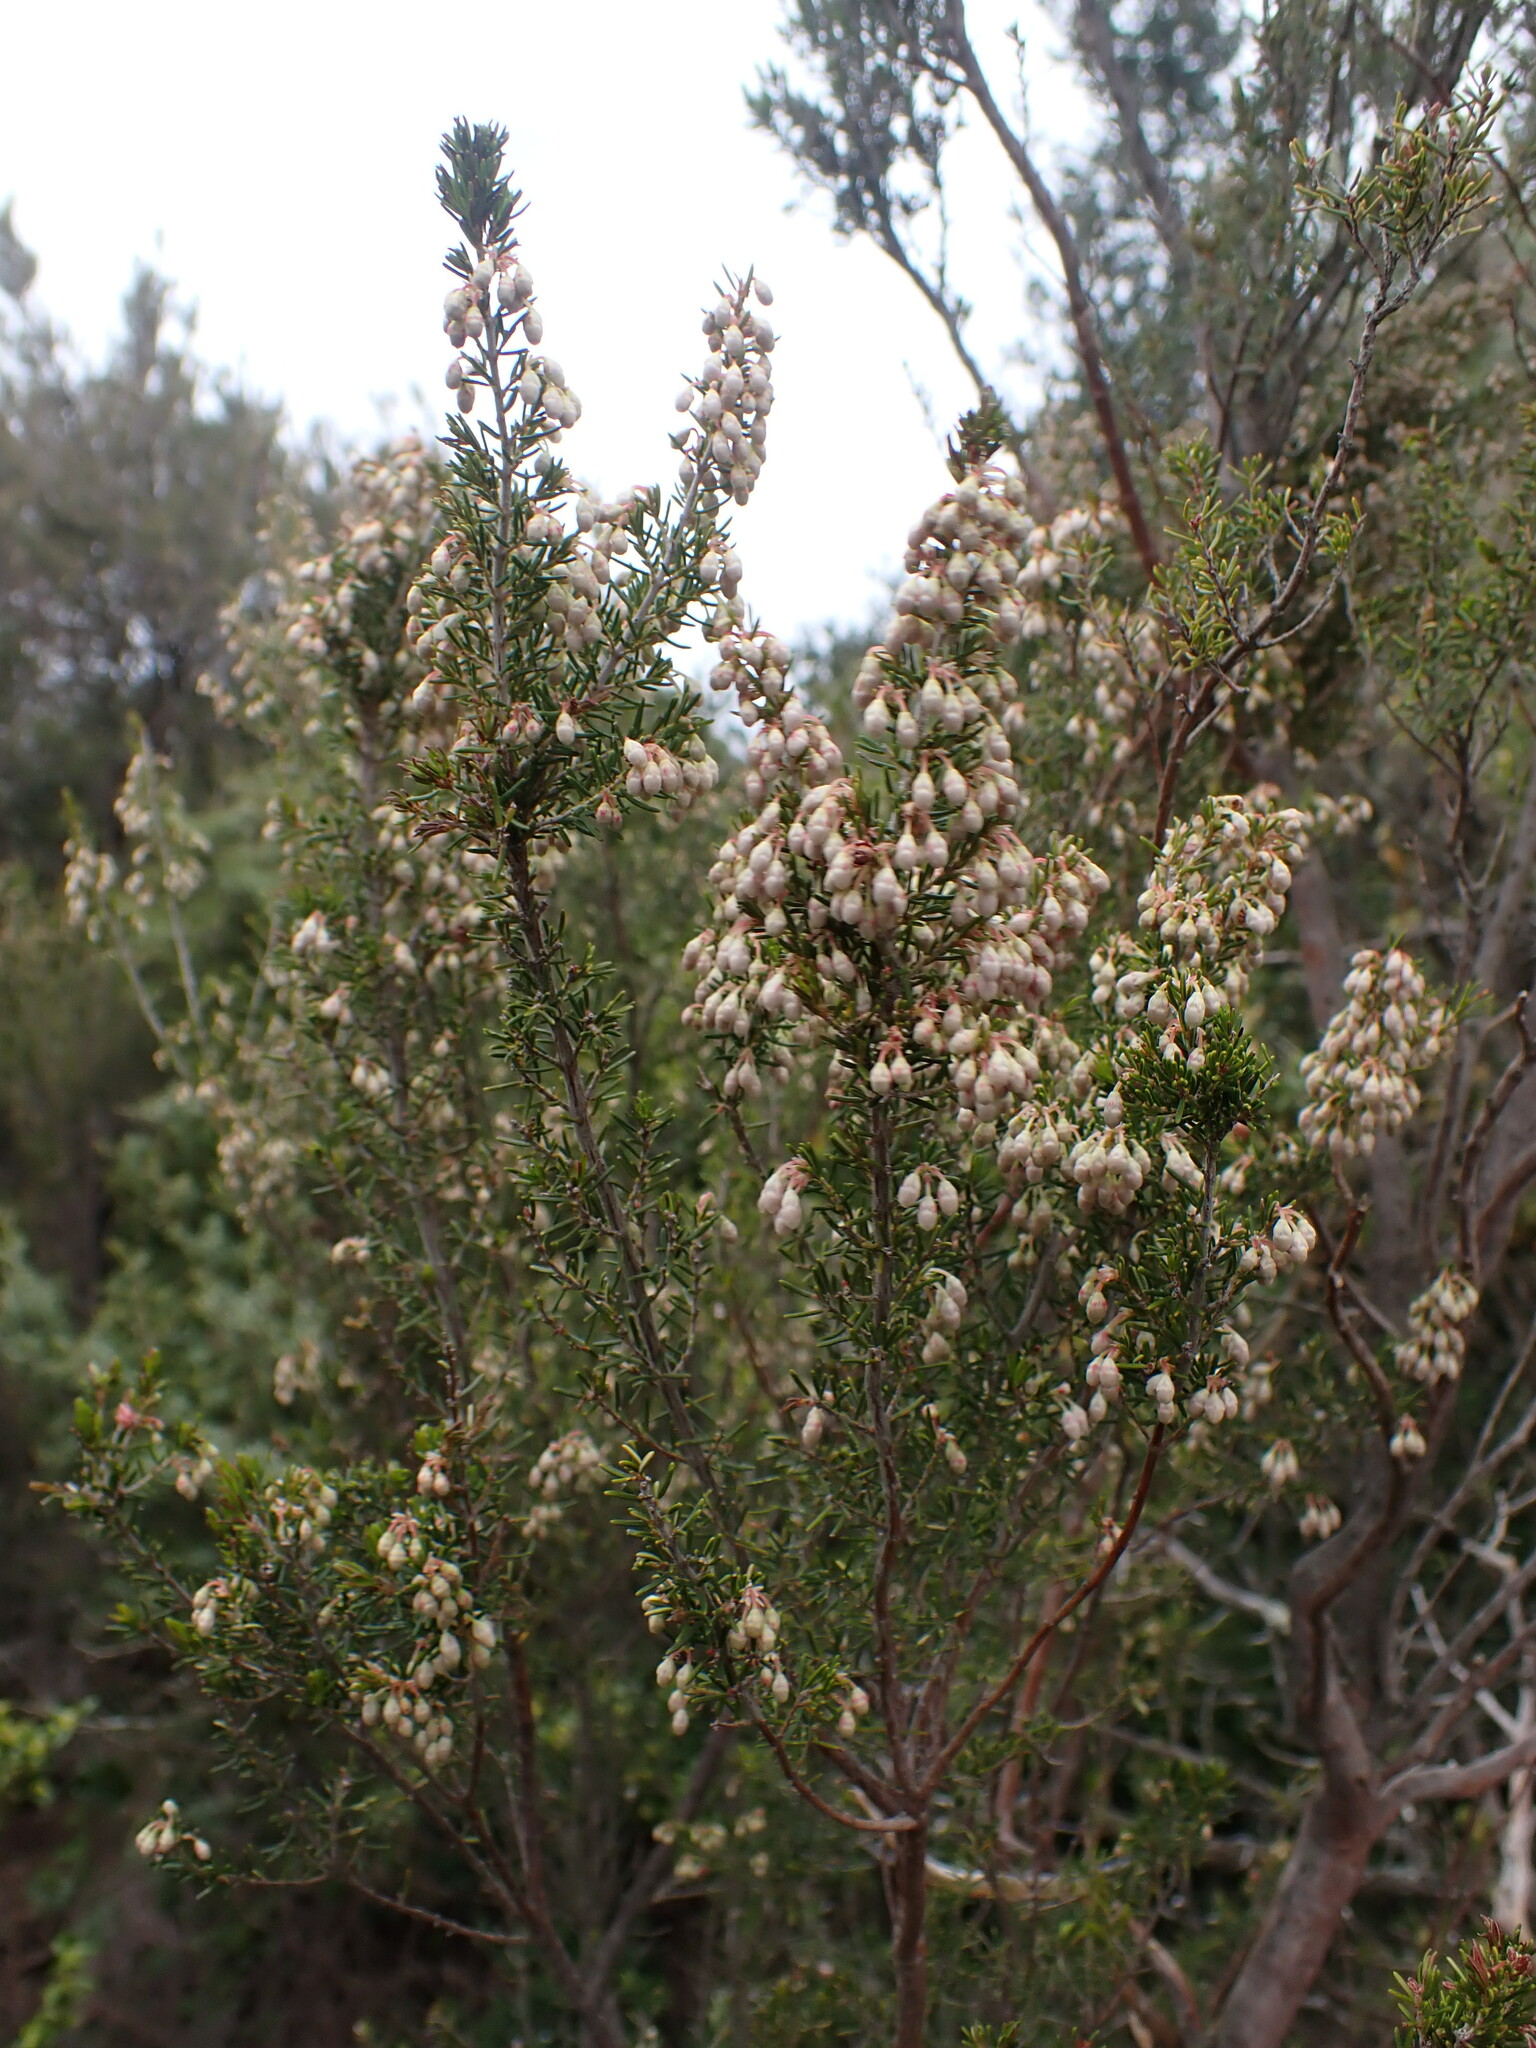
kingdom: Plantae
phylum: Tracheophyta
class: Magnoliopsida
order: Ericales
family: Ericaceae
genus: Erica
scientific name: Erica arborea
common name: Tree heath
